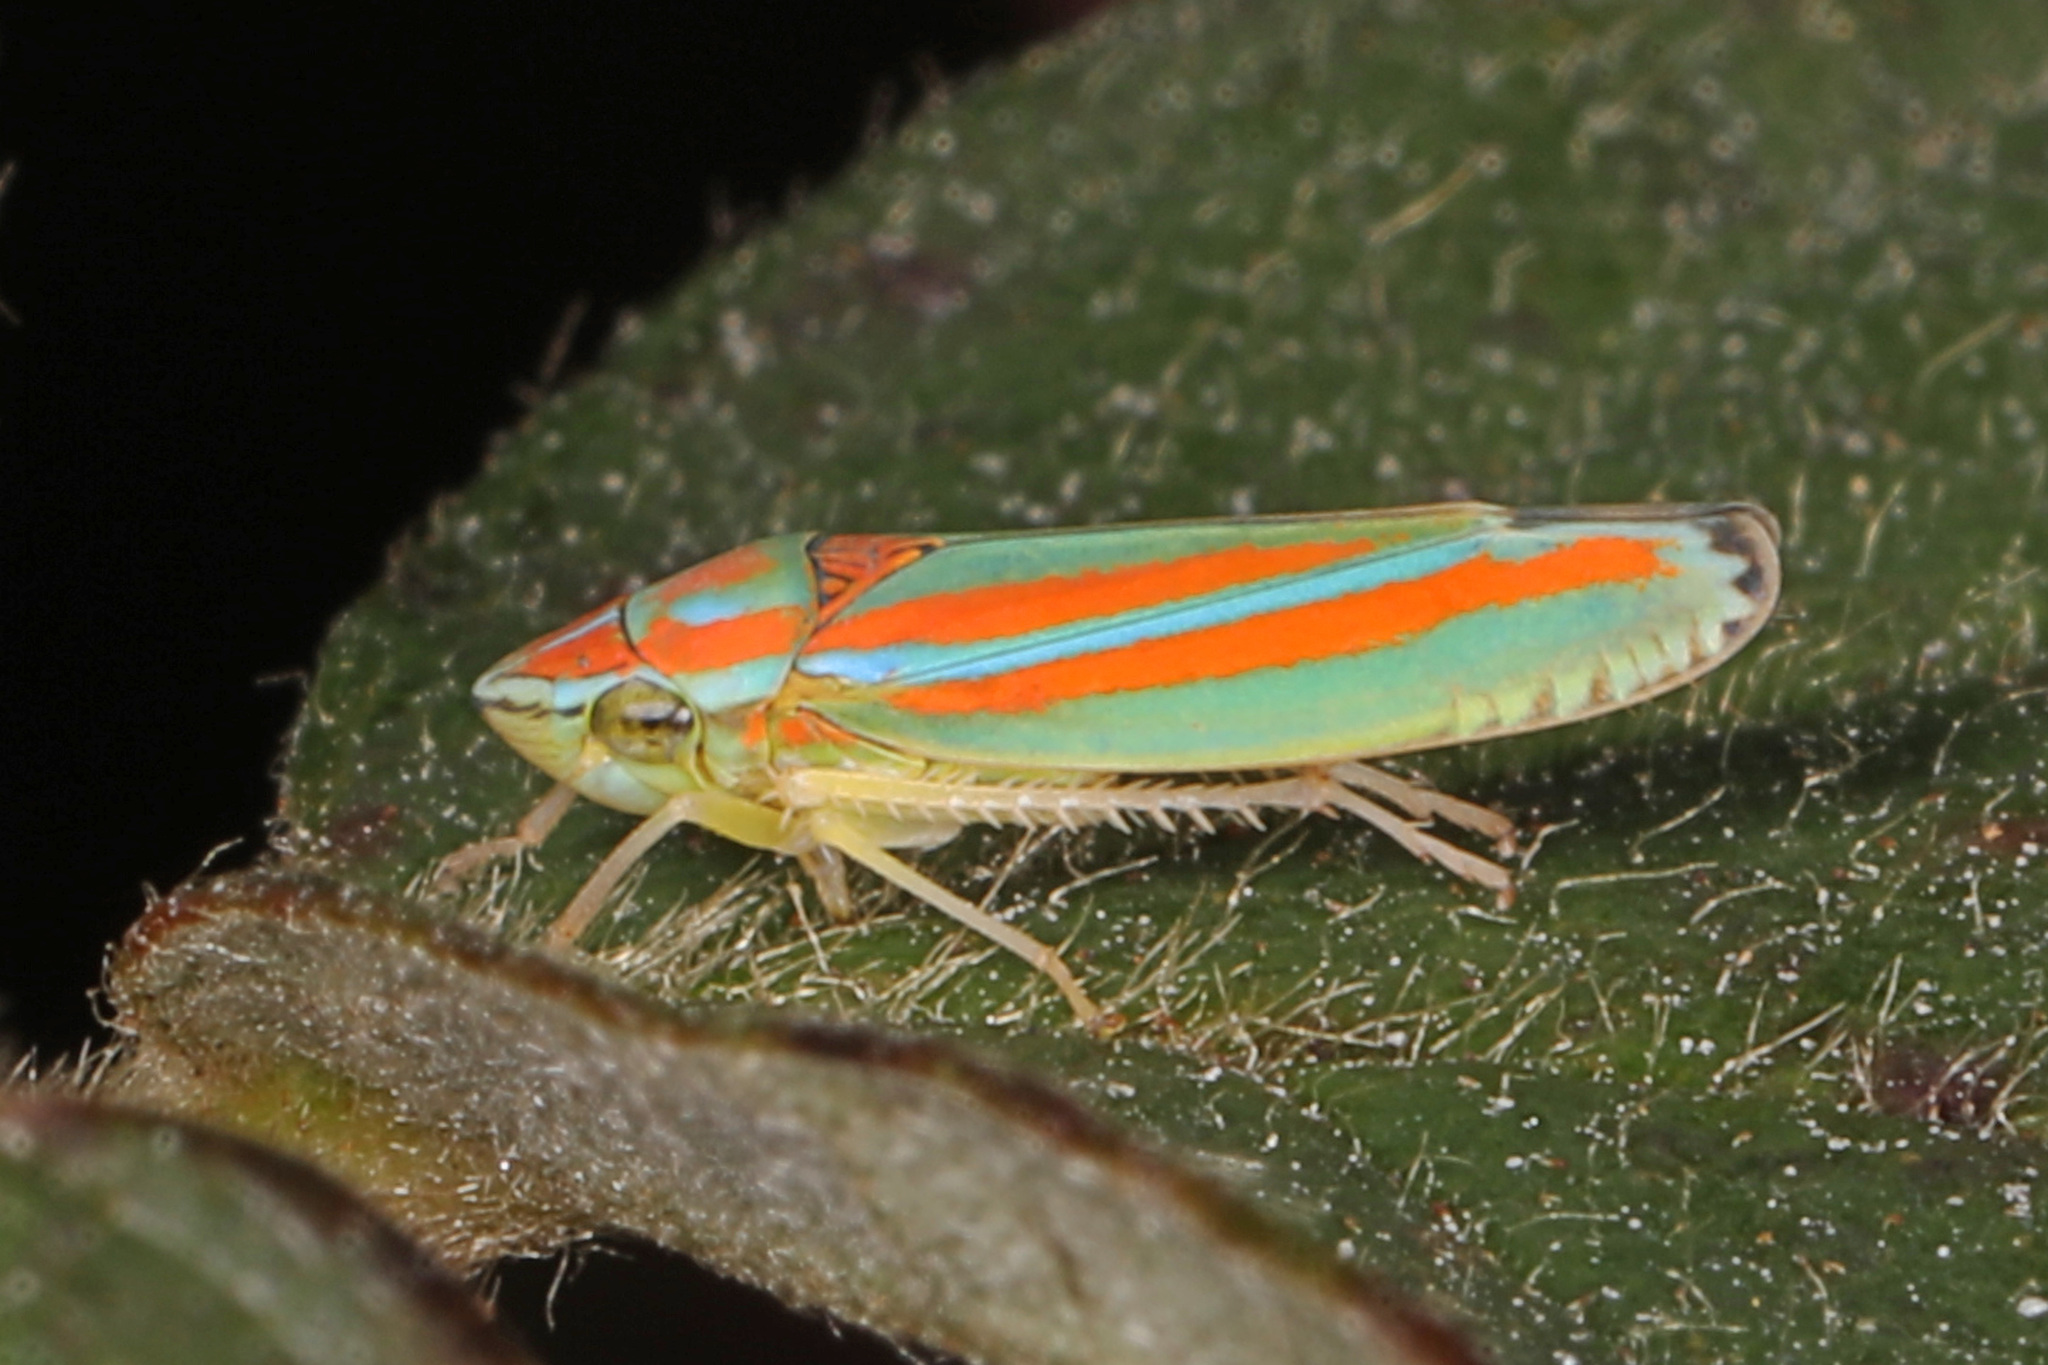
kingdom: Animalia
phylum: Arthropoda
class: Insecta
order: Hemiptera
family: Cicadellidae
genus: Graphocephala
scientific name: Graphocephala versuta
